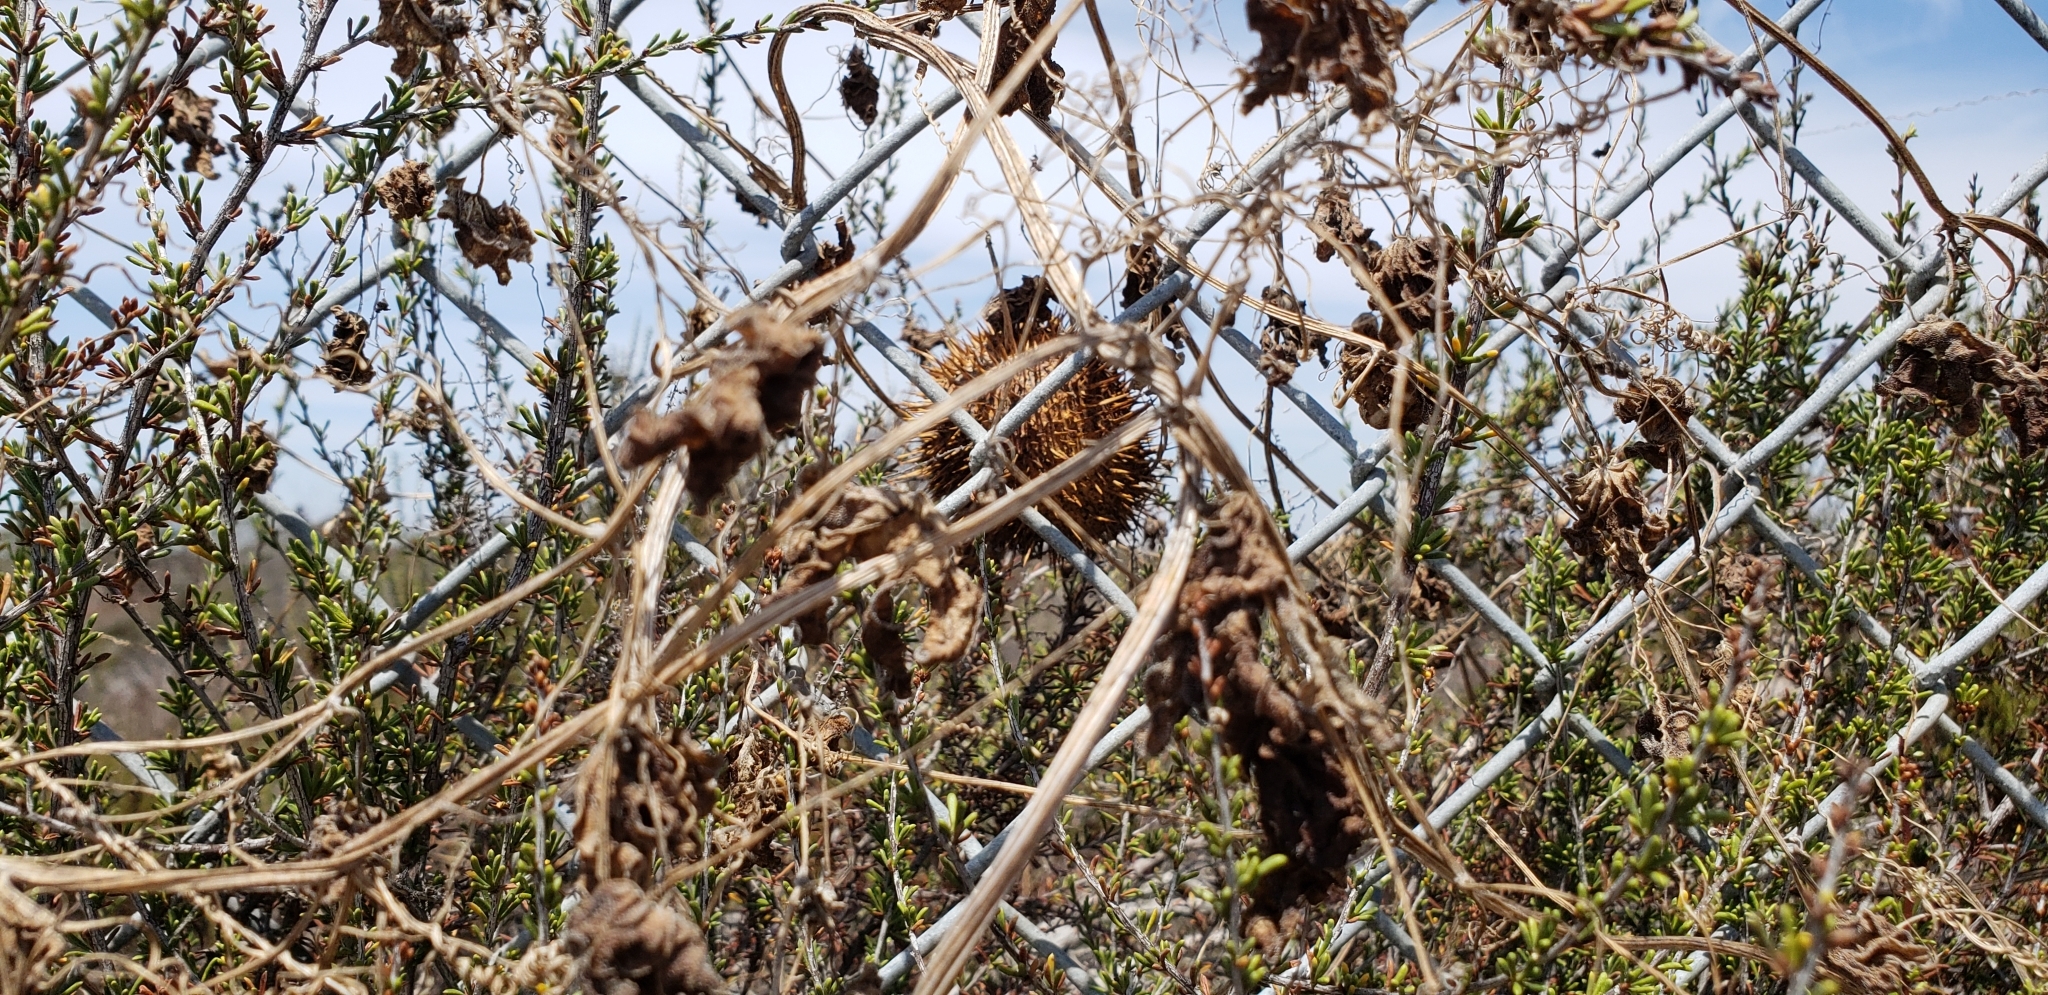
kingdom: Plantae
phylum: Tracheophyta
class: Magnoliopsida
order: Cucurbitales
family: Cucurbitaceae
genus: Marah
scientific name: Marah macrocarpa
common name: Cucamonga manroot
